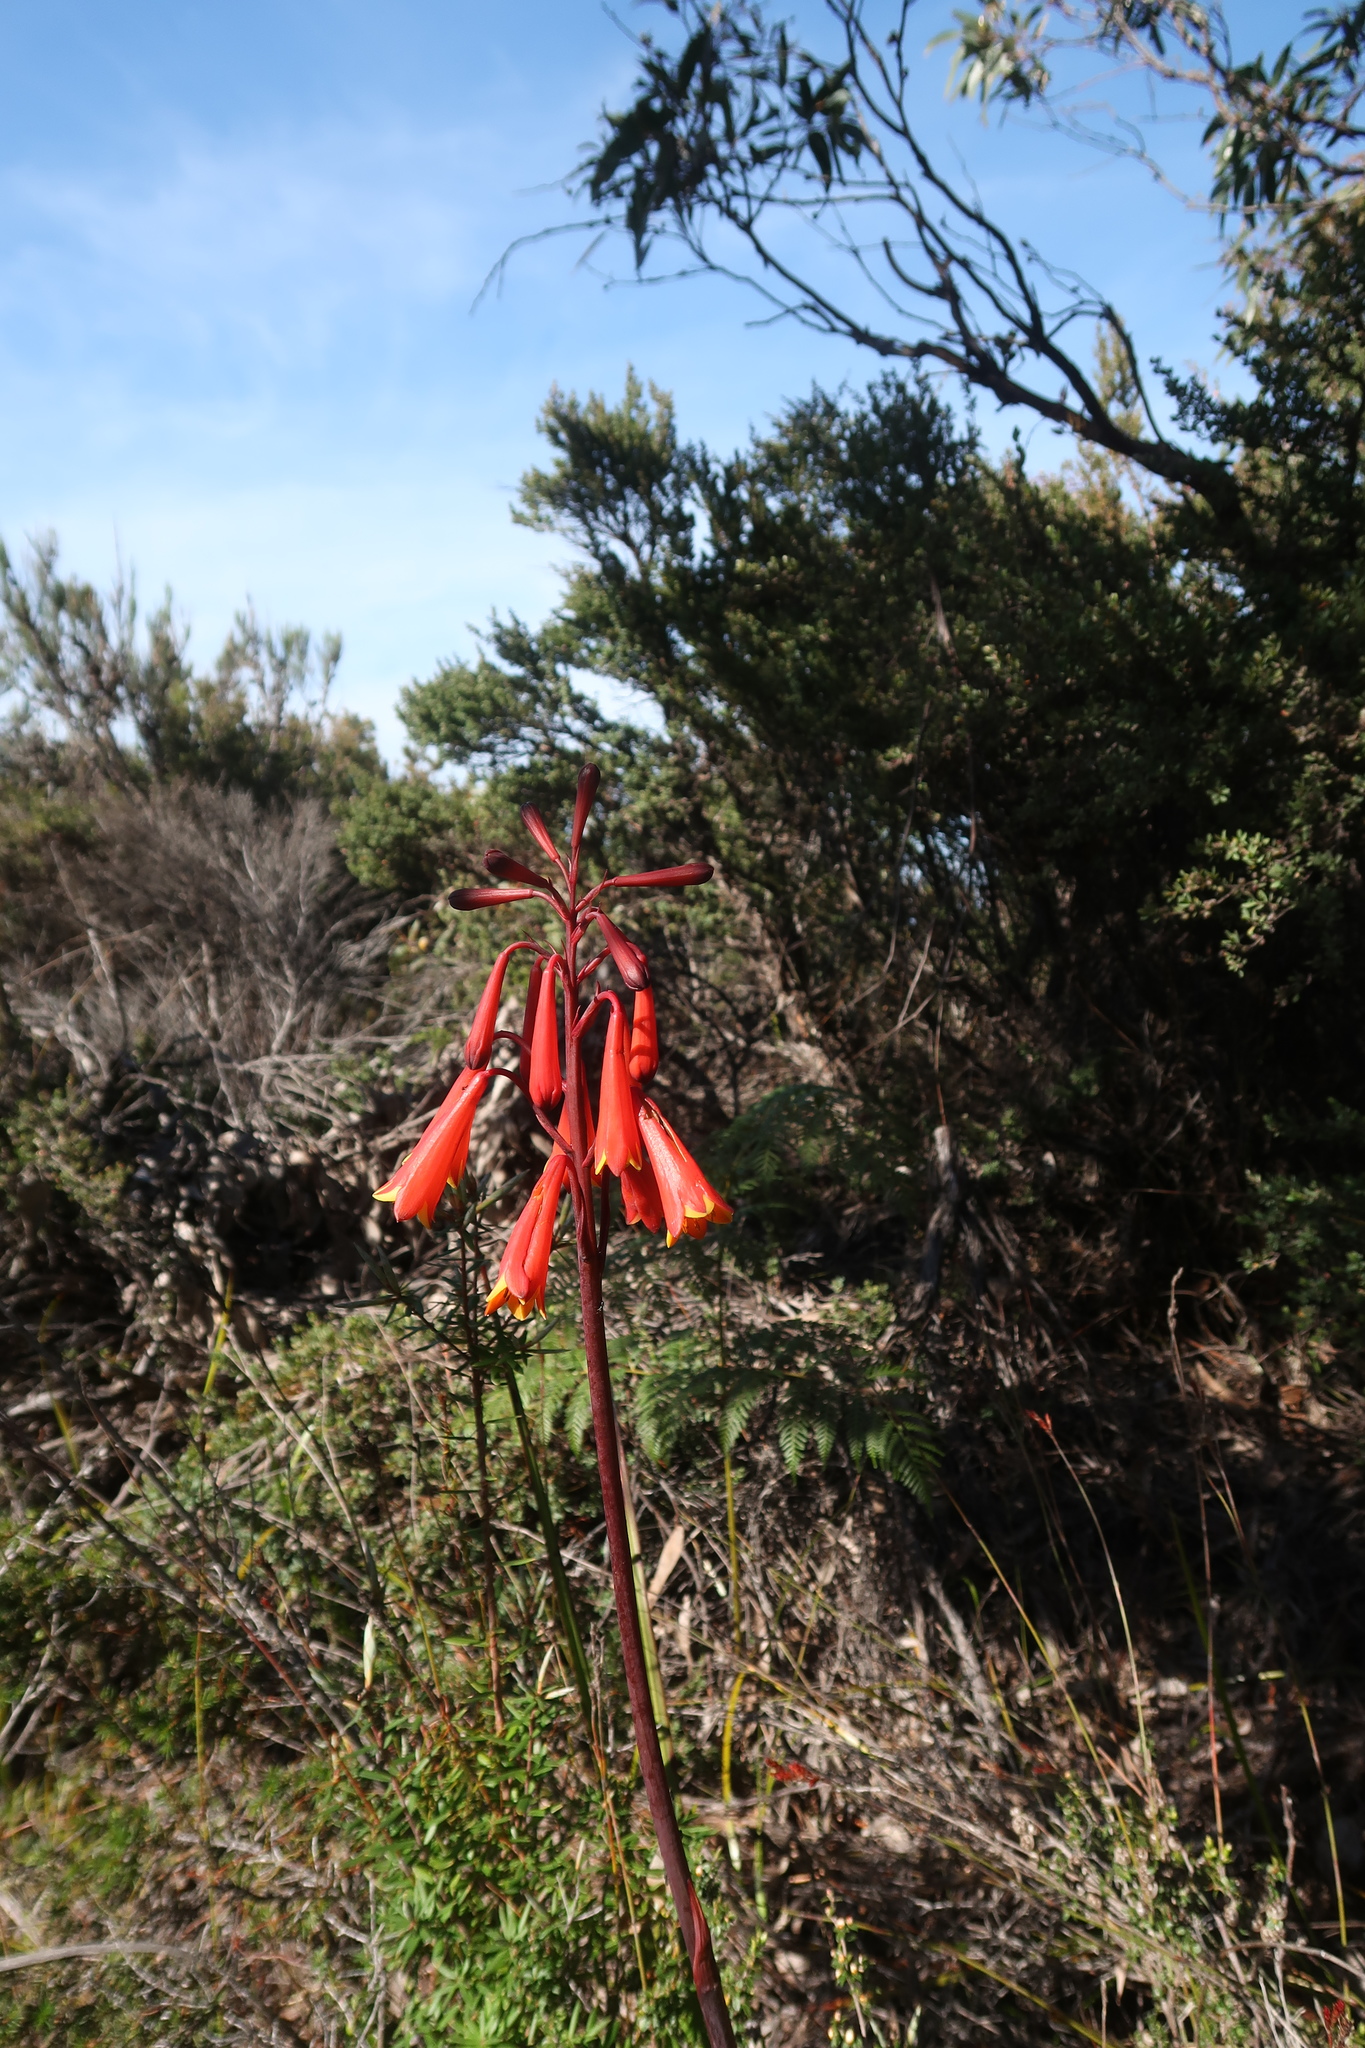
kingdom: Plantae
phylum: Tracheophyta
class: Liliopsida
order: Asparagales
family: Blandfordiaceae
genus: Blandfordia
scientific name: Blandfordia punicea
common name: Tasmanian christmas-bell
